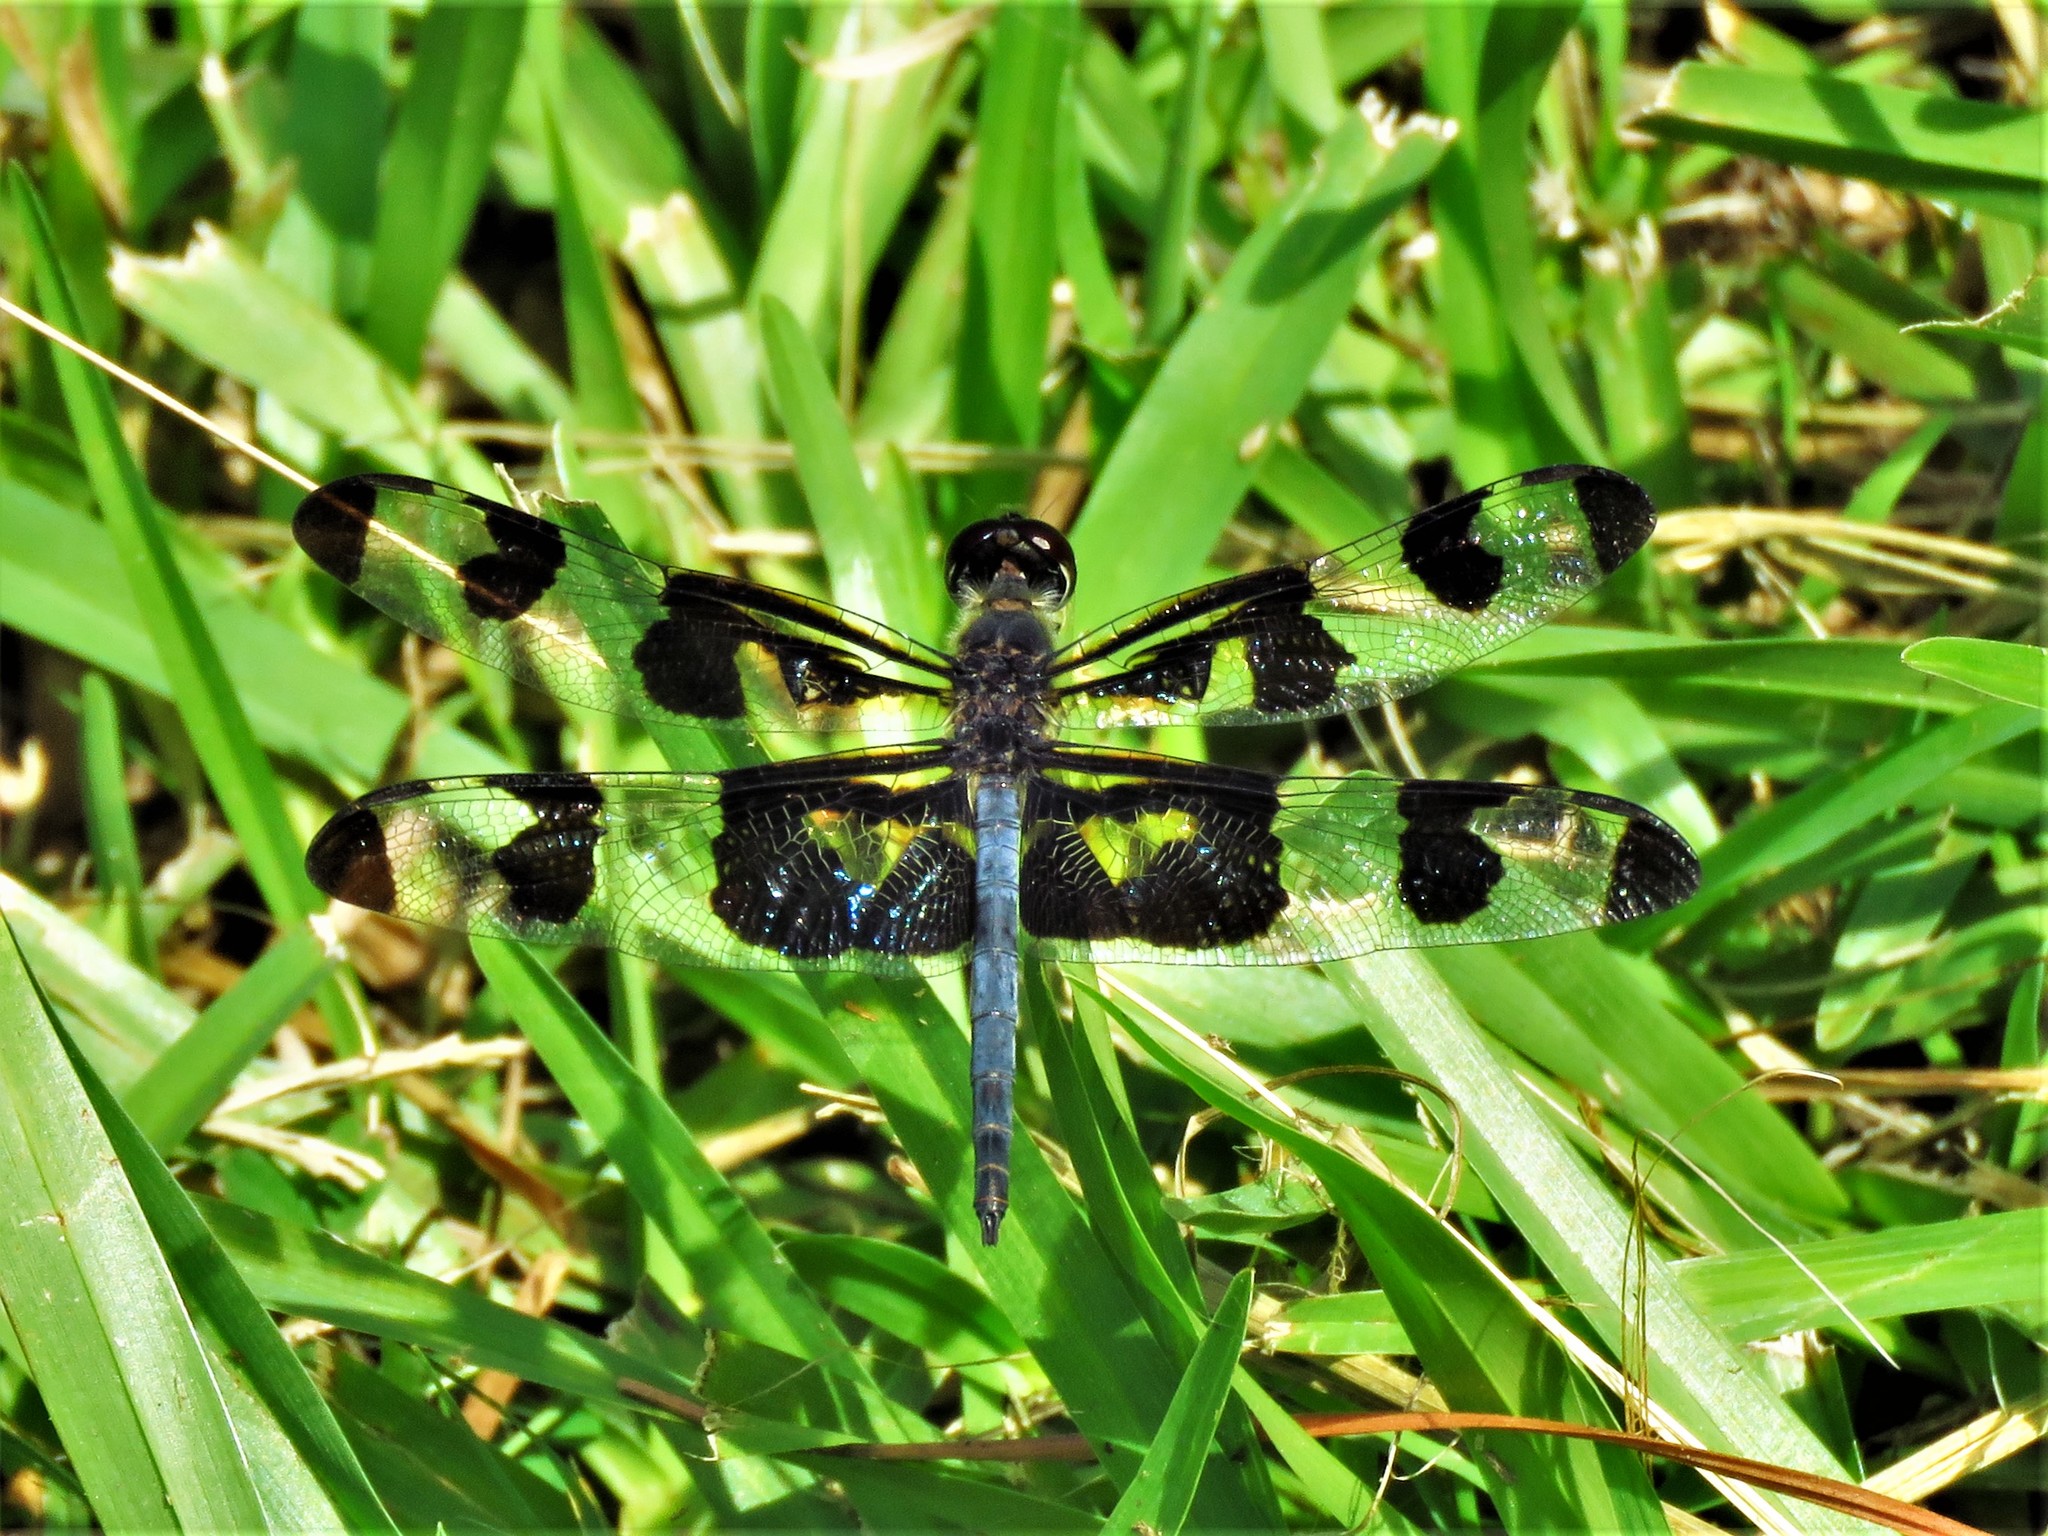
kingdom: Animalia
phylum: Arthropoda
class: Insecta
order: Odonata
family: Libellulidae
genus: Celithemis
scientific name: Celithemis fasciata
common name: Banded pennant
